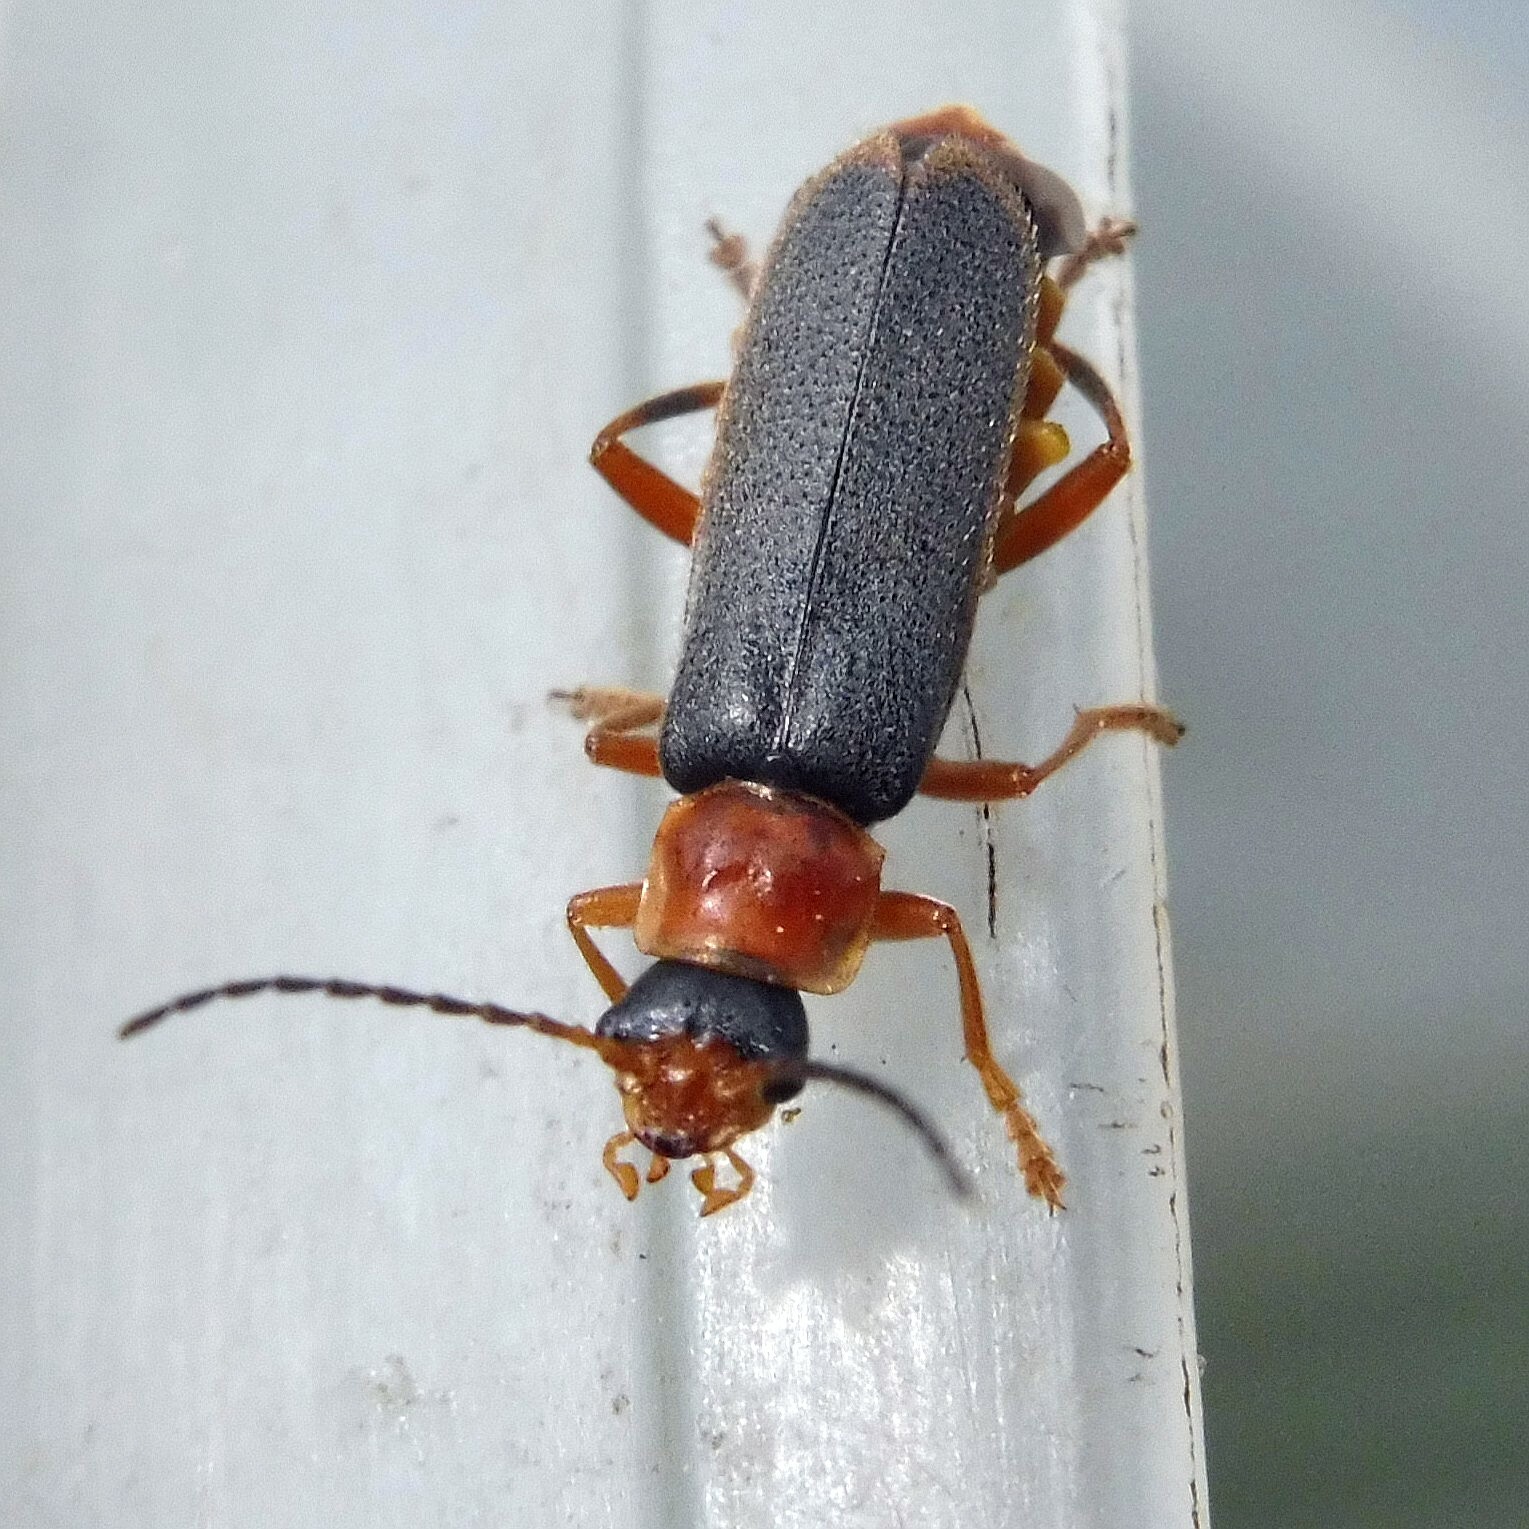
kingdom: Animalia
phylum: Arthropoda
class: Insecta
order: Coleoptera
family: Cantharidae
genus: Cantharis
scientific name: Cantharis lateralis
